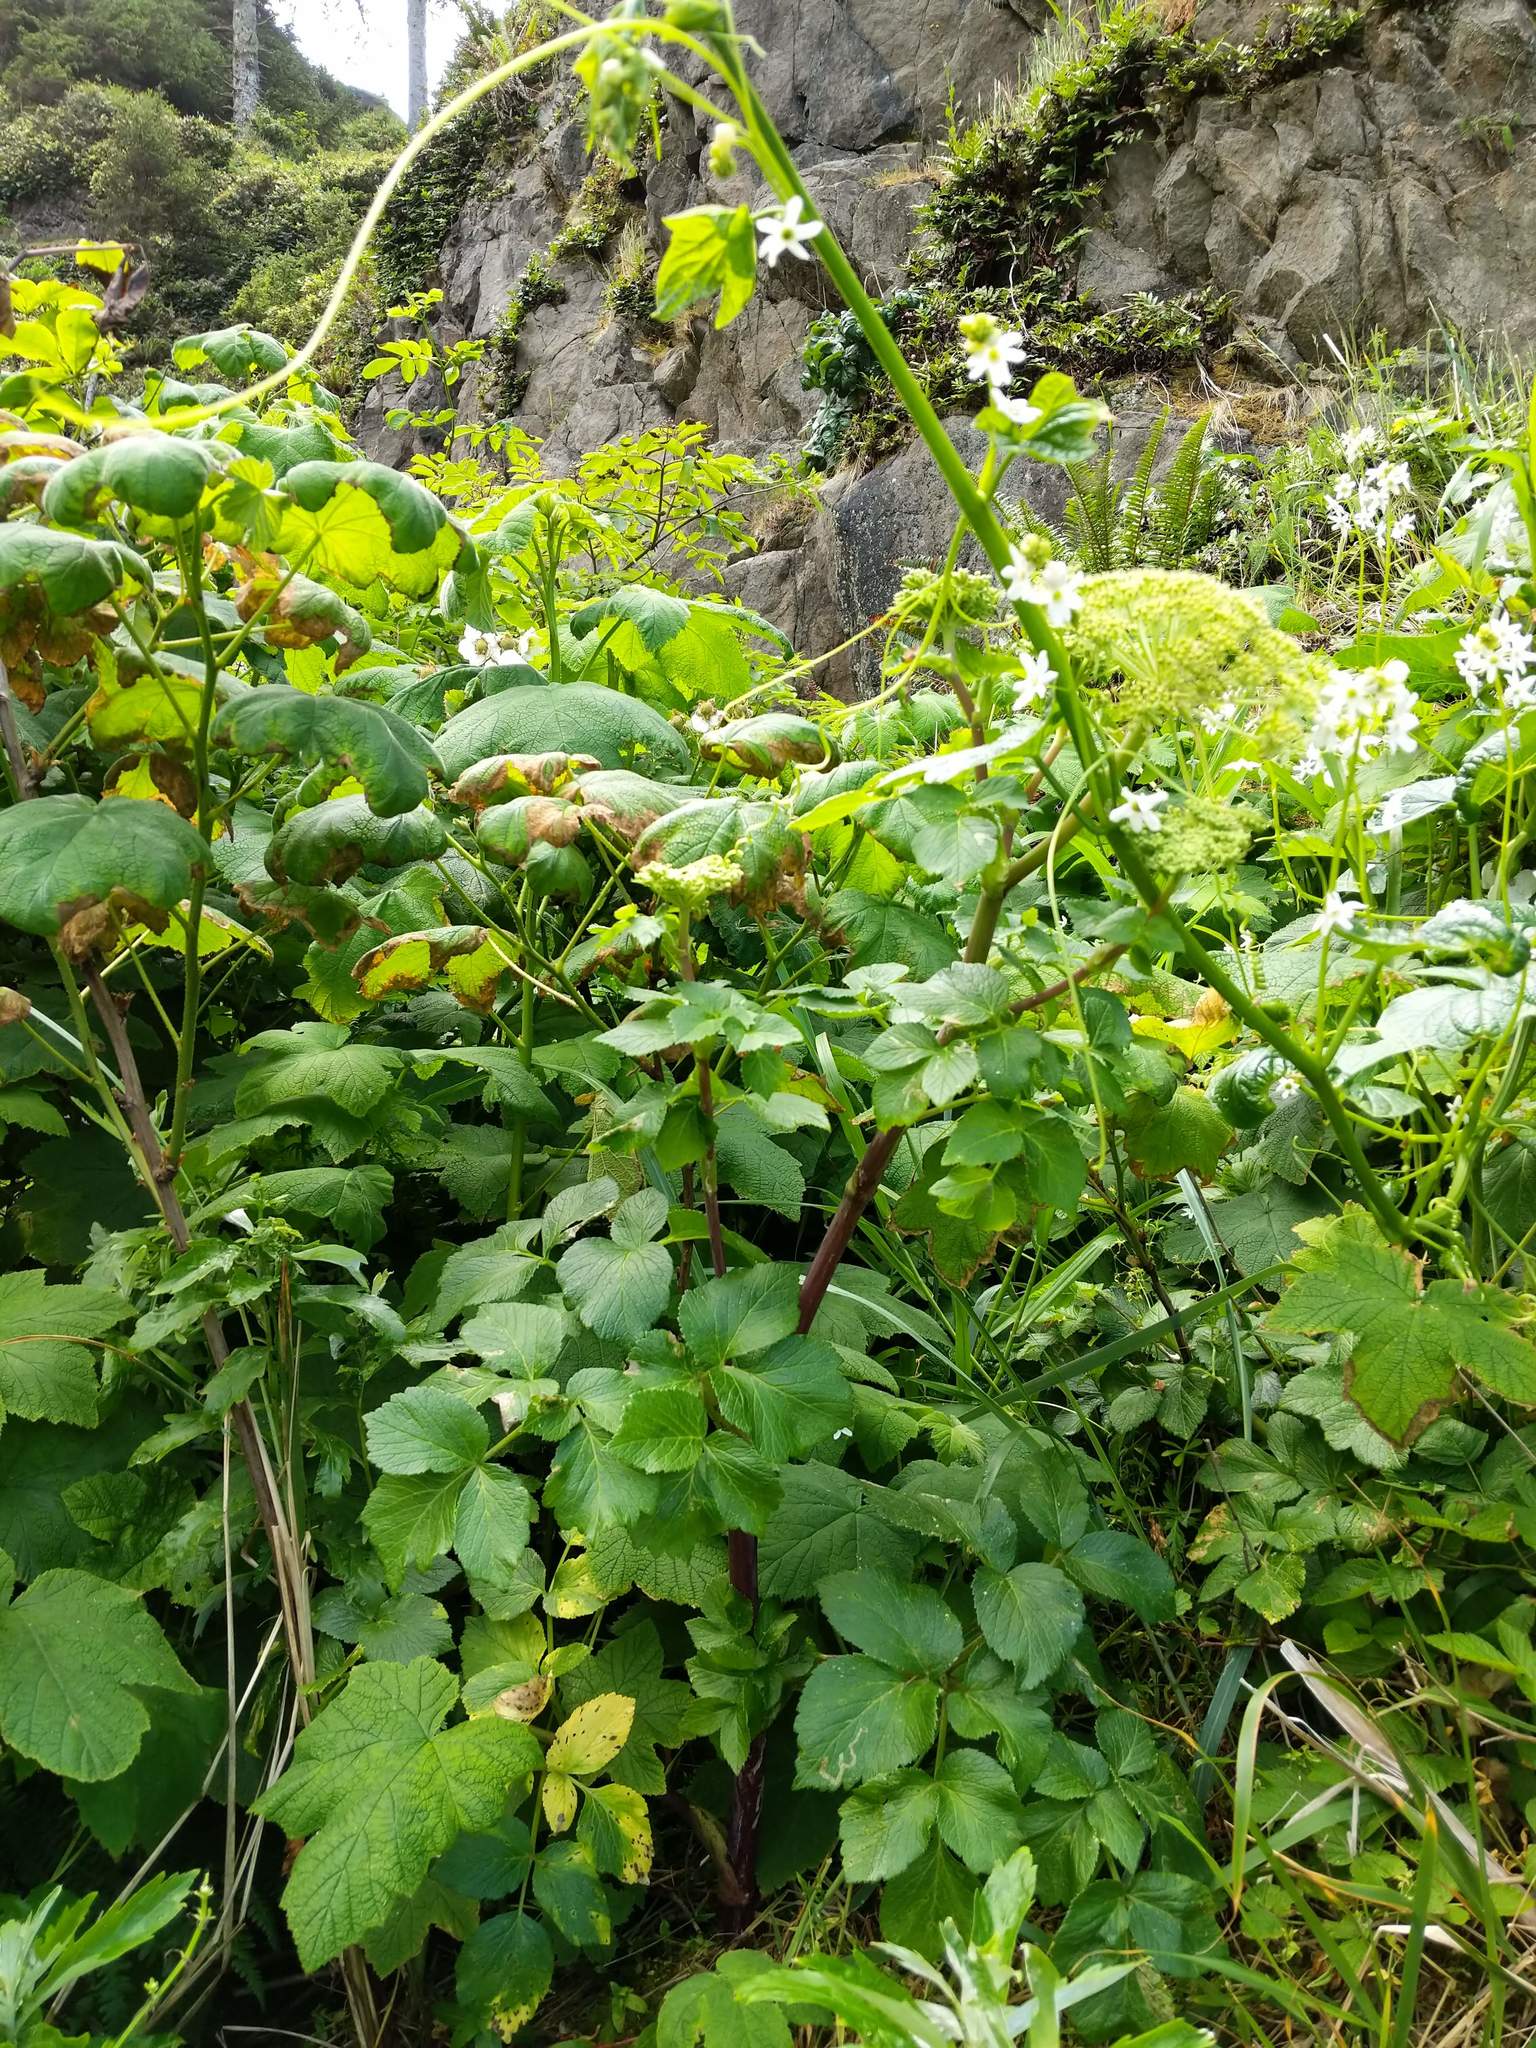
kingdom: Plantae
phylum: Tracheophyta
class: Magnoliopsida
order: Apiales
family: Apiaceae
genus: Angelica
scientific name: Angelica lucida
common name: Seabeach angelica
